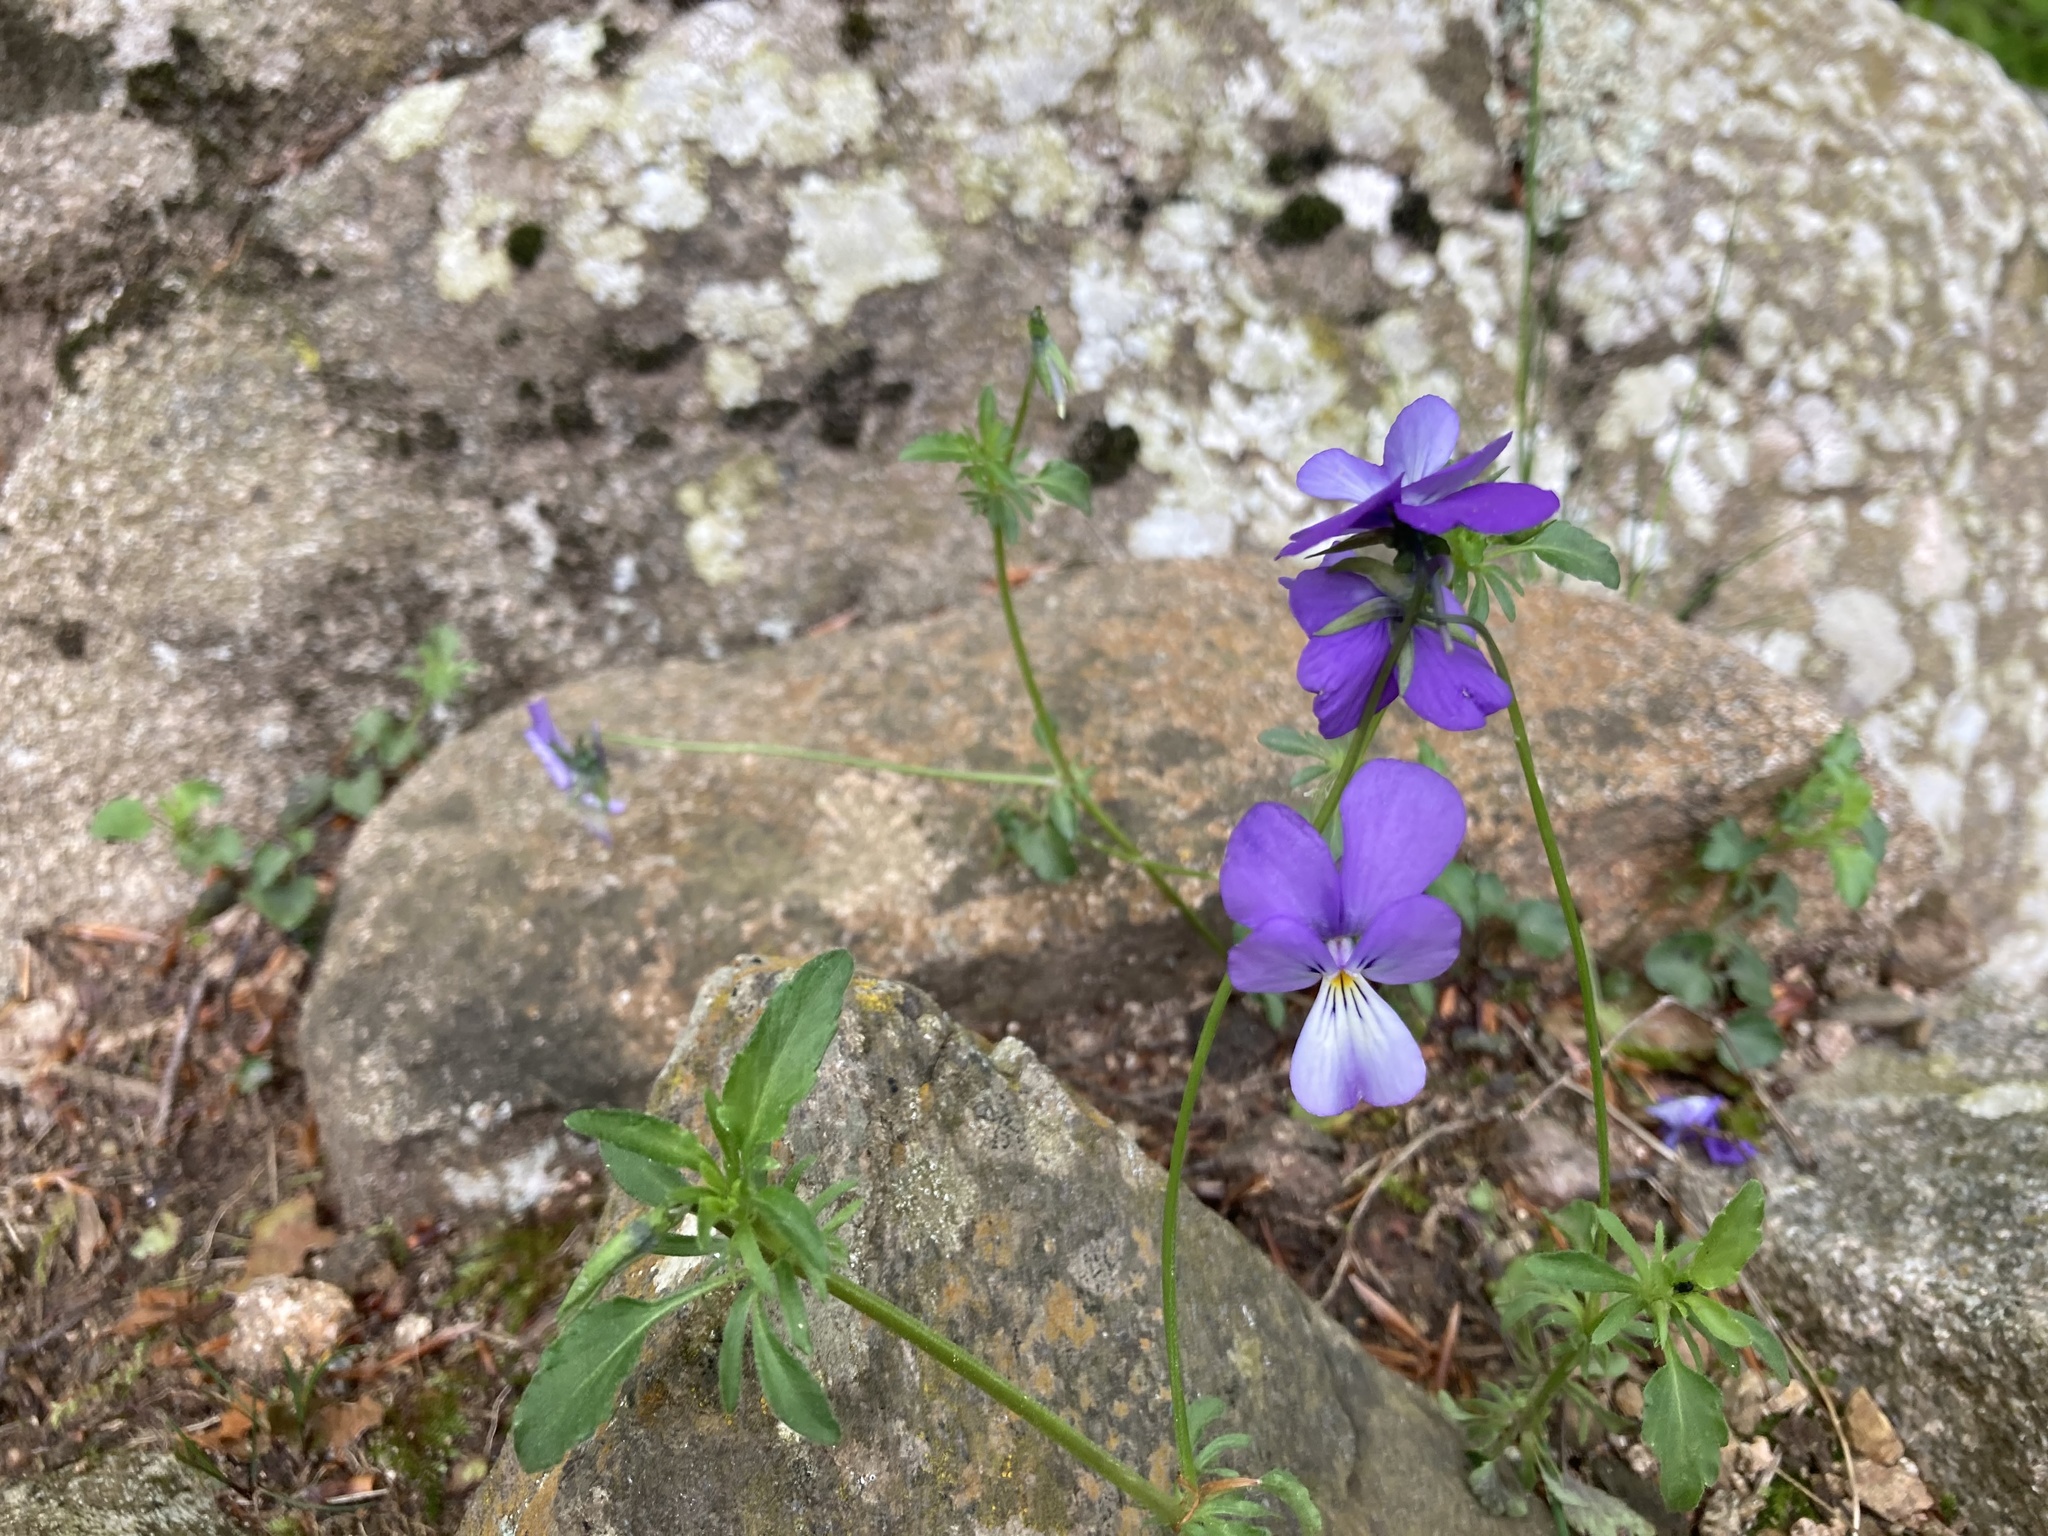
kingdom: Plantae
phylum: Tracheophyta
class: Magnoliopsida
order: Malpighiales
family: Violaceae
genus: Viola
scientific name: Viola bubanii
